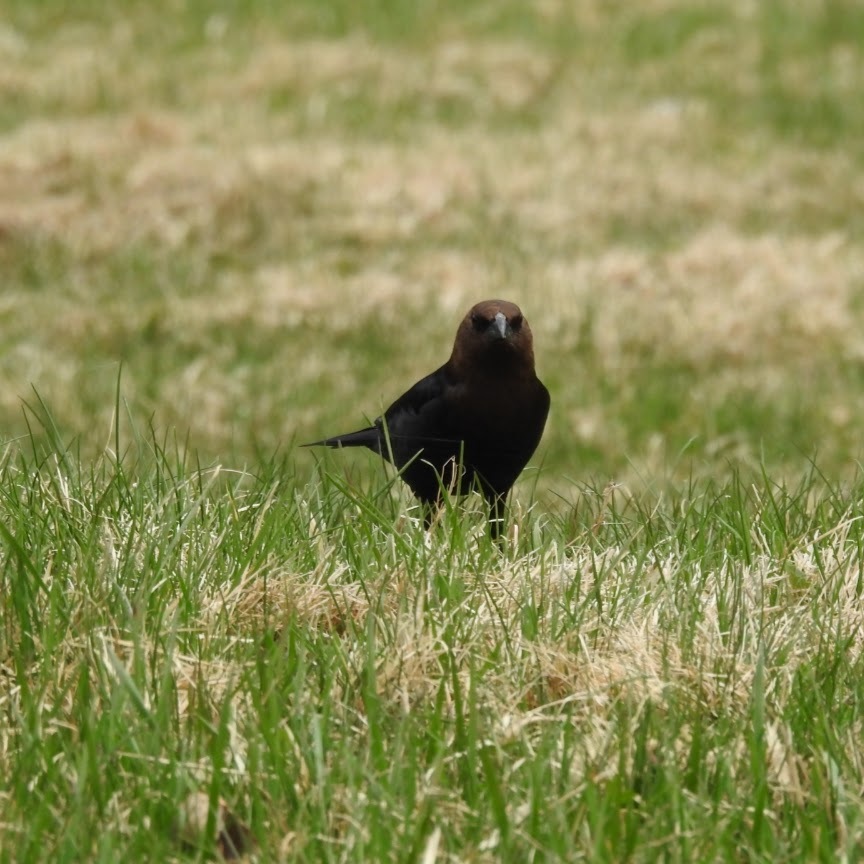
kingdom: Animalia
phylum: Chordata
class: Aves
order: Passeriformes
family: Icteridae
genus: Molothrus
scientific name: Molothrus ater
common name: Brown-headed cowbird
